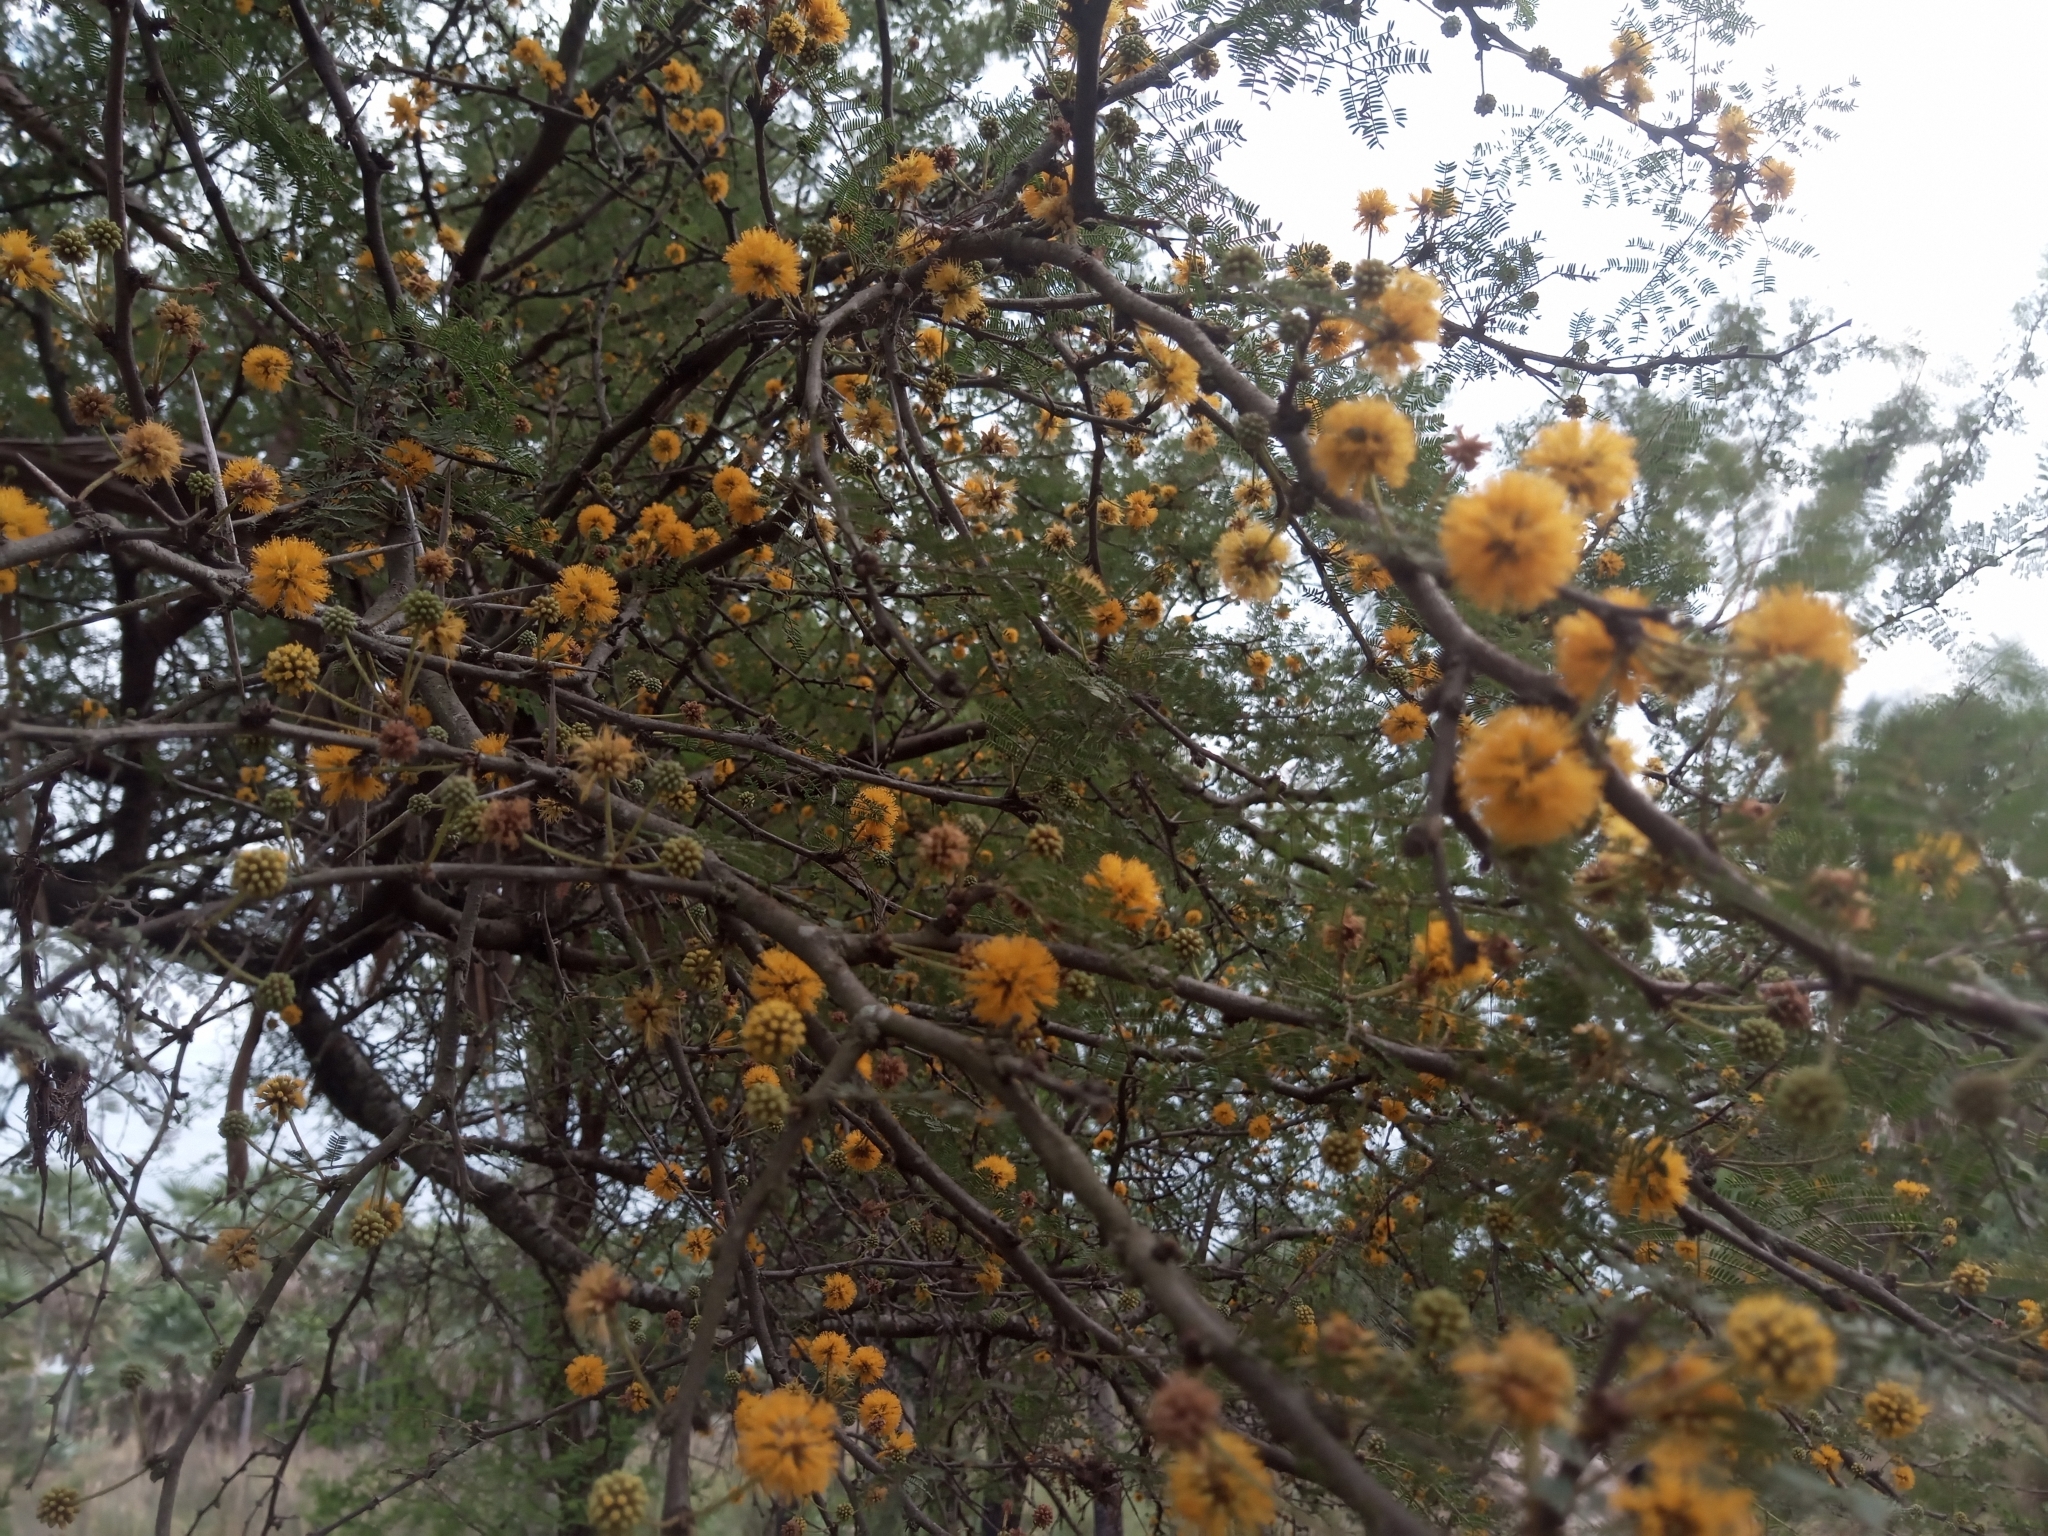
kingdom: Plantae
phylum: Tracheophyta
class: Magnoliopsida
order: Fabales
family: Fabaceae
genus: Vachellia
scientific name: Vachellia caven
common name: Roman cassie
